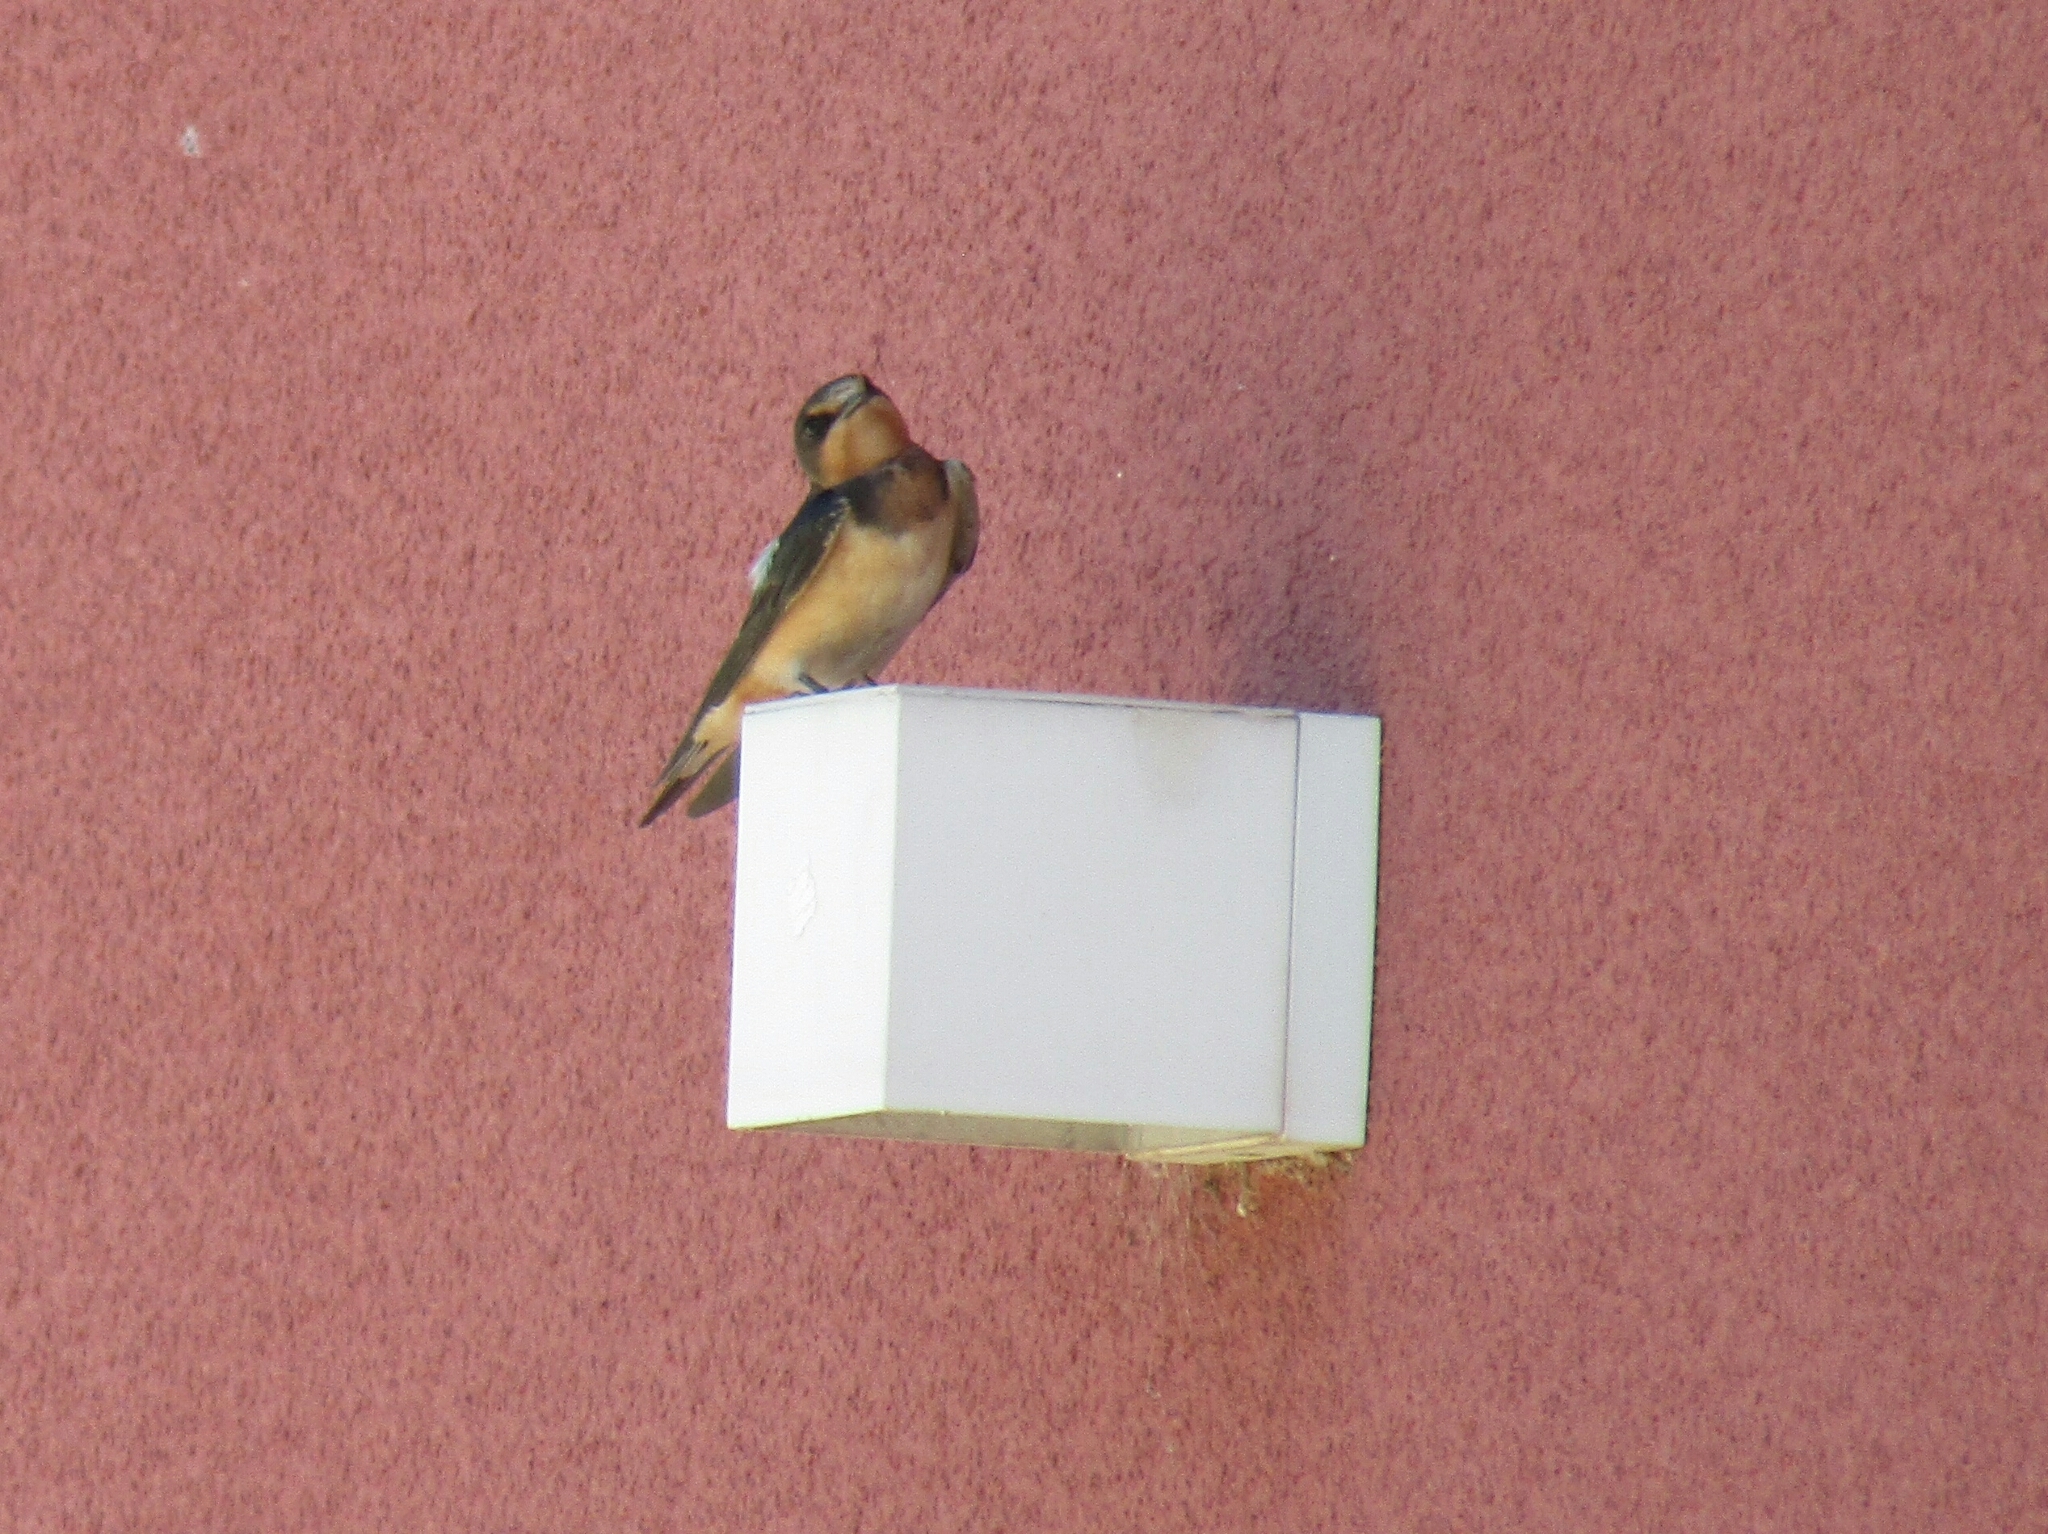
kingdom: Animalia
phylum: Chordata
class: Aves
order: Passeriformes
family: Hirundinidae
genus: Hirundo
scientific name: Hirundo rustica
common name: Barn swallow
